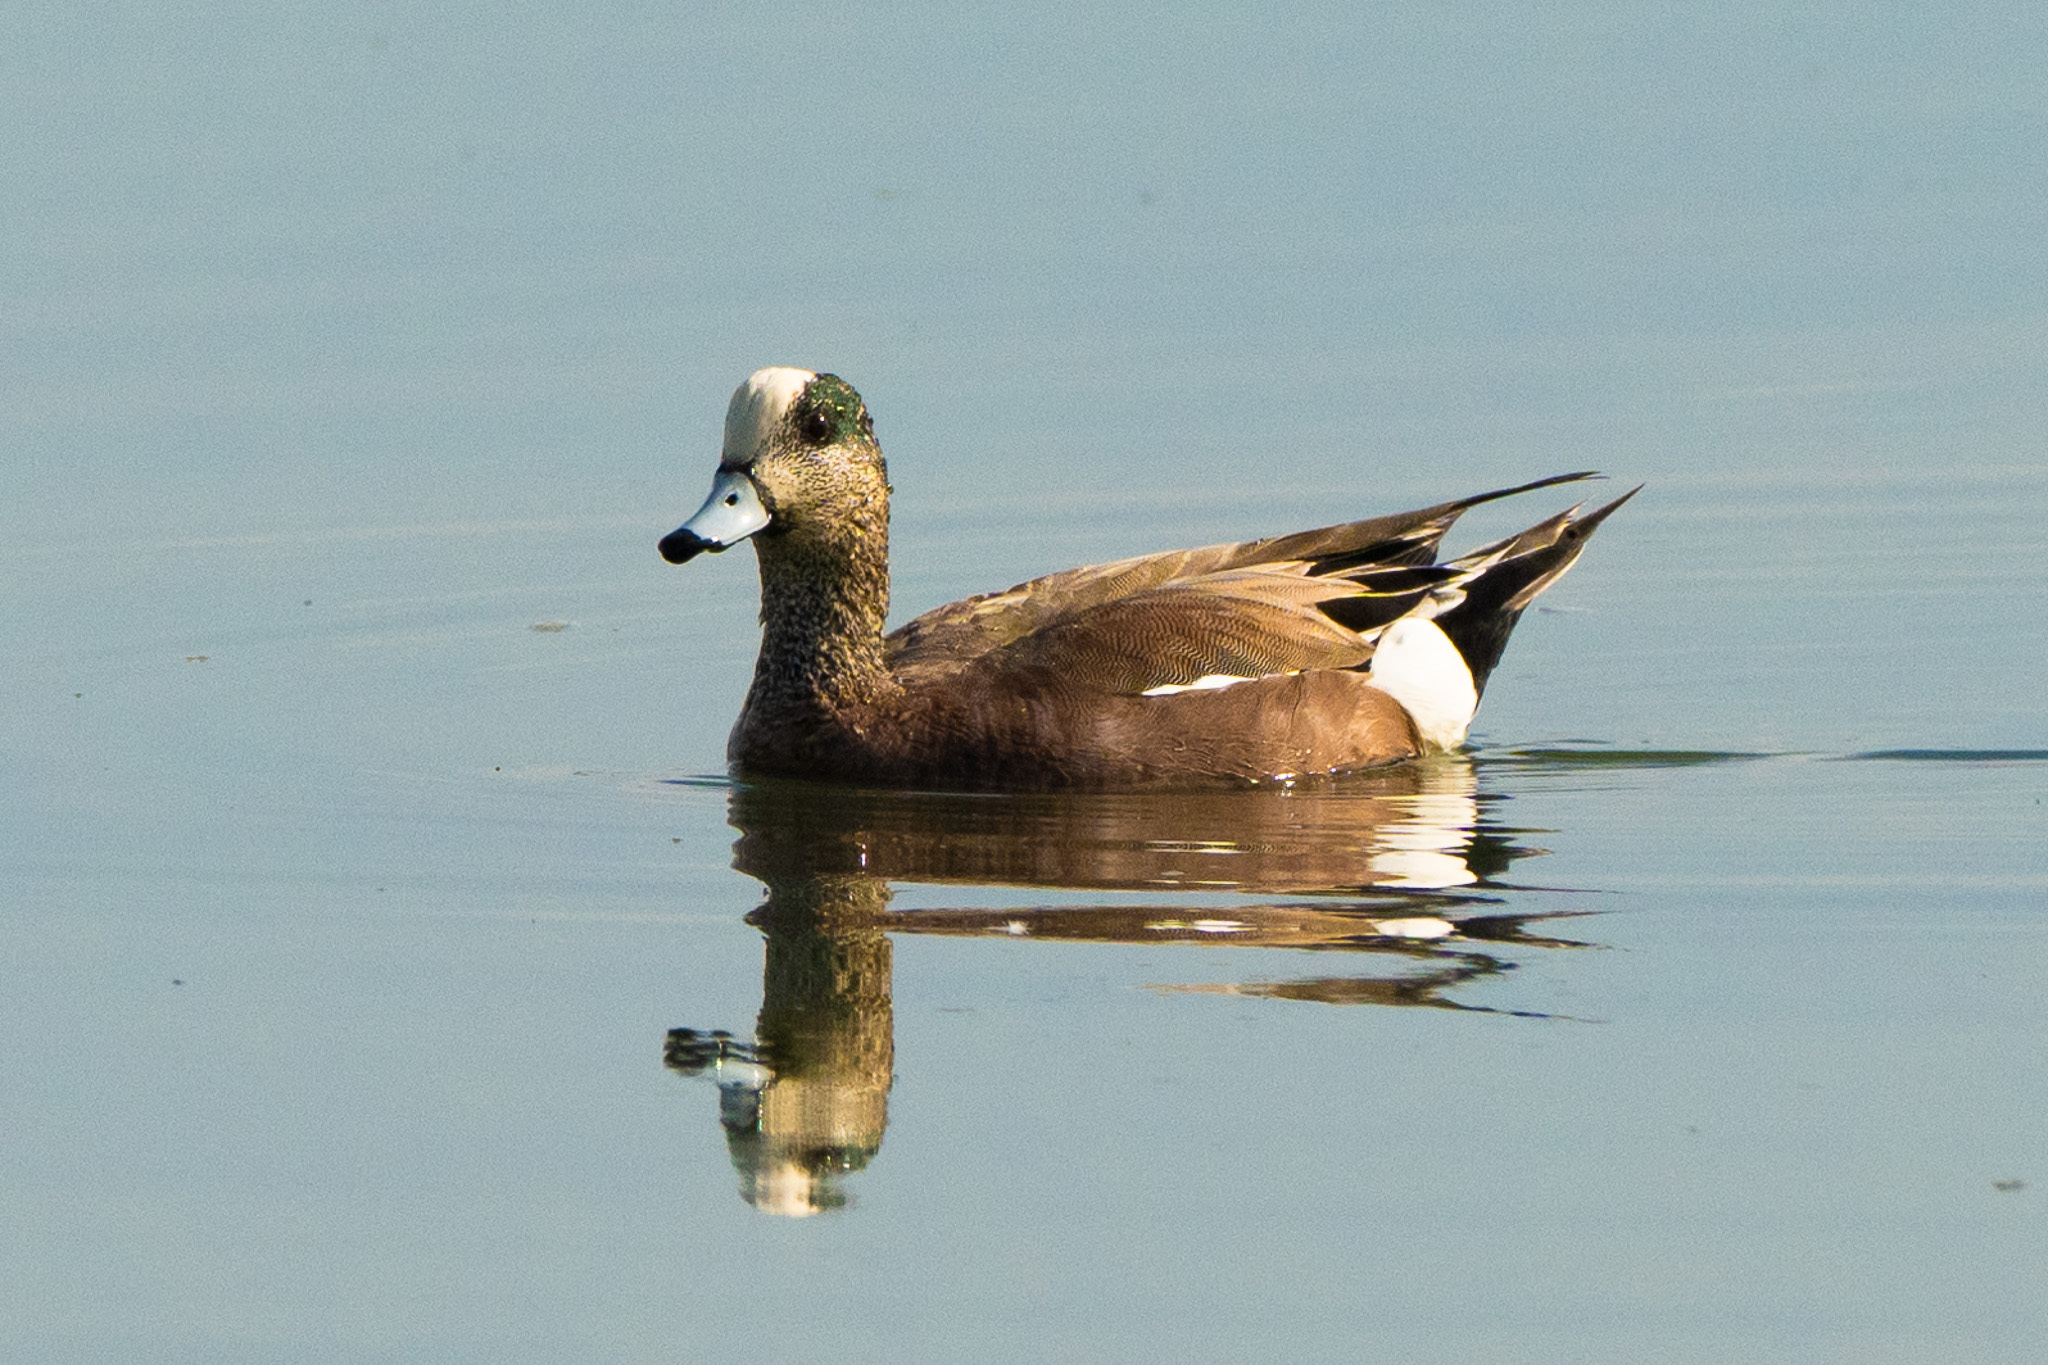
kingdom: Animalia
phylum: Chordata
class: Aves
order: Anseriformes
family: Anatidae
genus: Mareca
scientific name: Mareca americana
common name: American wigeon
